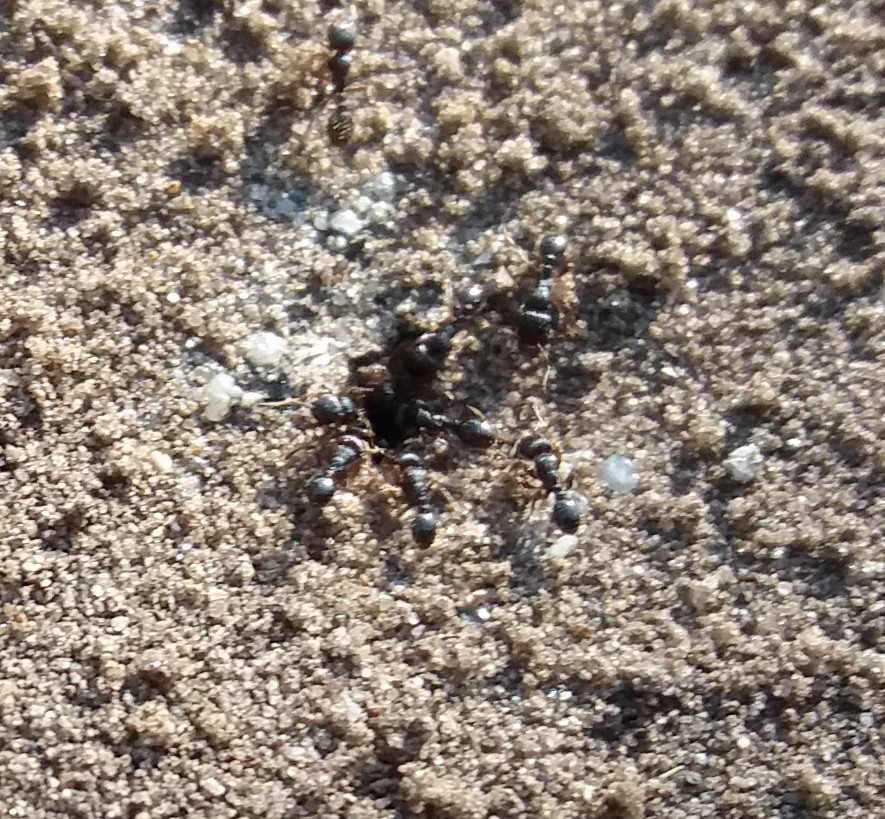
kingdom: Animalia
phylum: Arthropoda
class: Insecta
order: Hymenoptera
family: Formicidae
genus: Tetramorium
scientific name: Tetramorium
